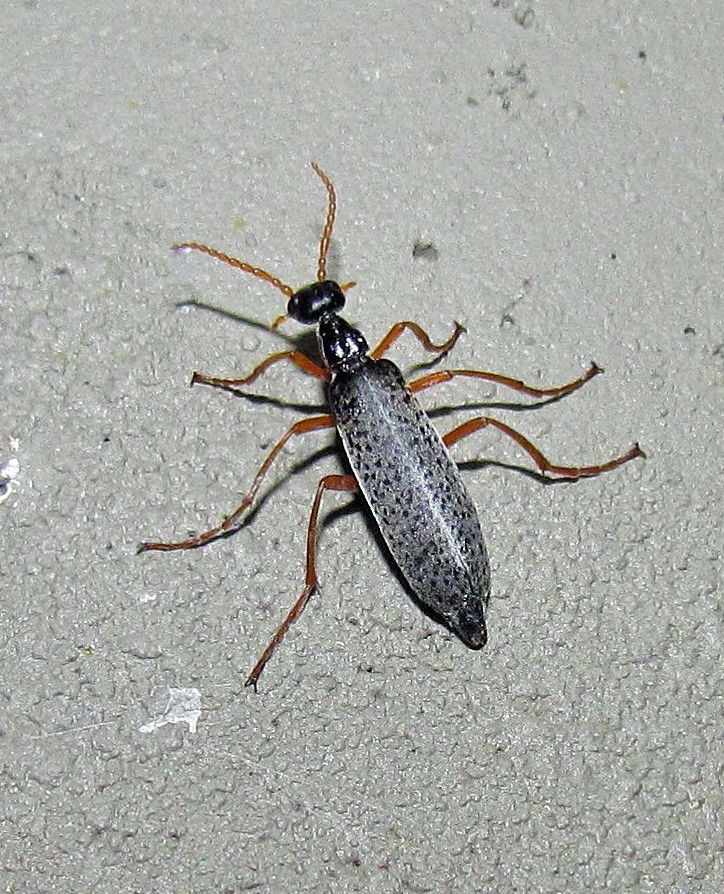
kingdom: Animalia
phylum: Arthropoda
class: Insecta
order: Coleoptera
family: Meloidae
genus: Epicauta
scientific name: Epicauta
